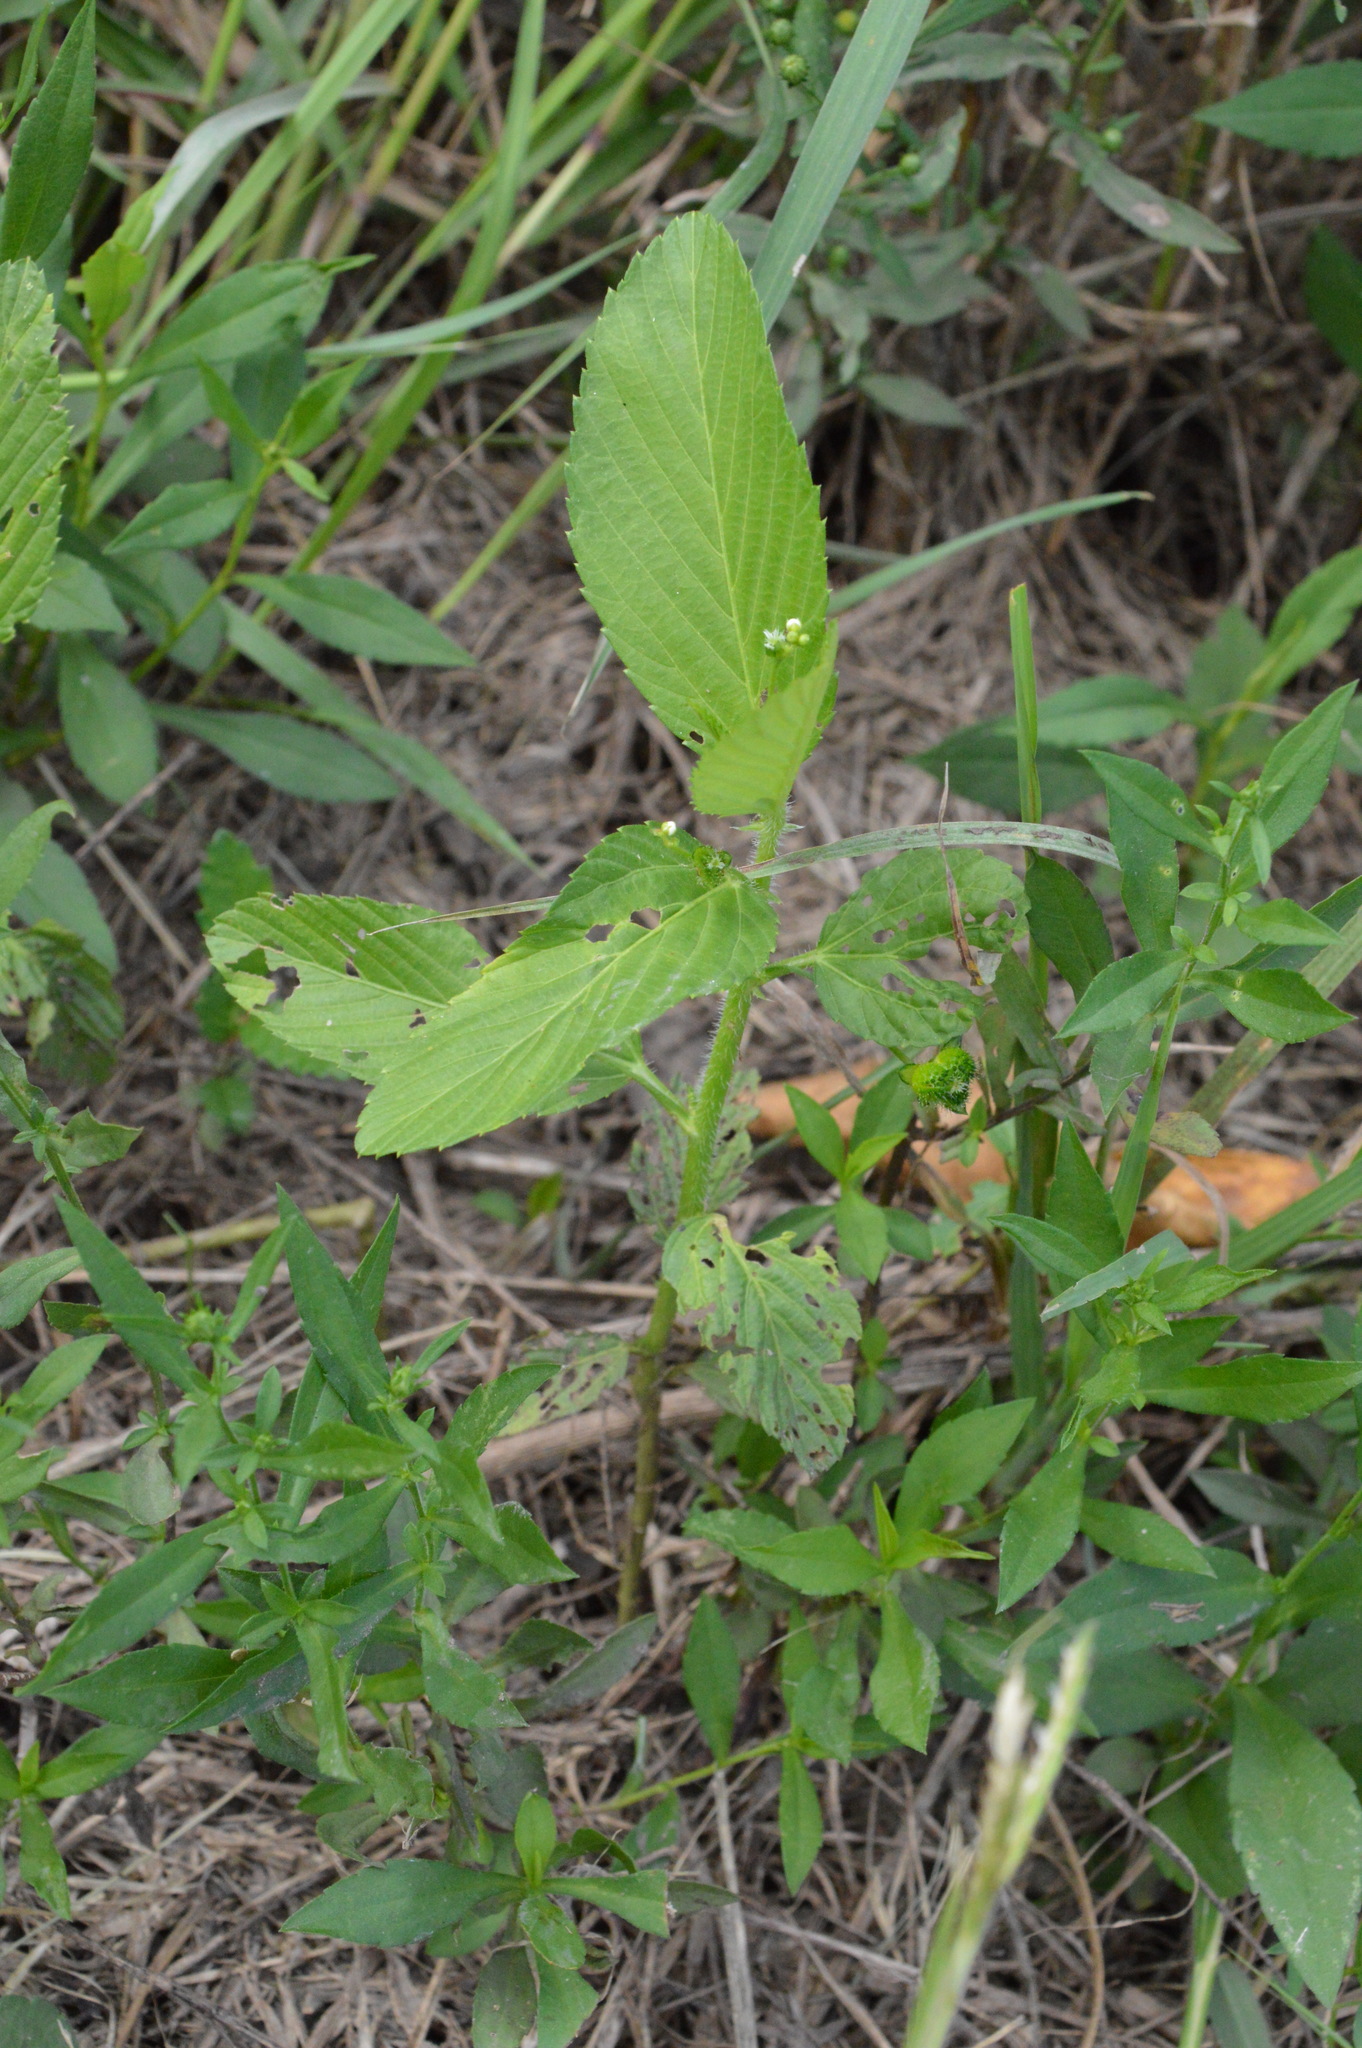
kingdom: Plantae
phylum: Tracheophyta
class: Magnoliopsida
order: Malpighiales
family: Euphorbiaceae
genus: Caperonia
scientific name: Caperonia palustris
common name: Sacatrapo
